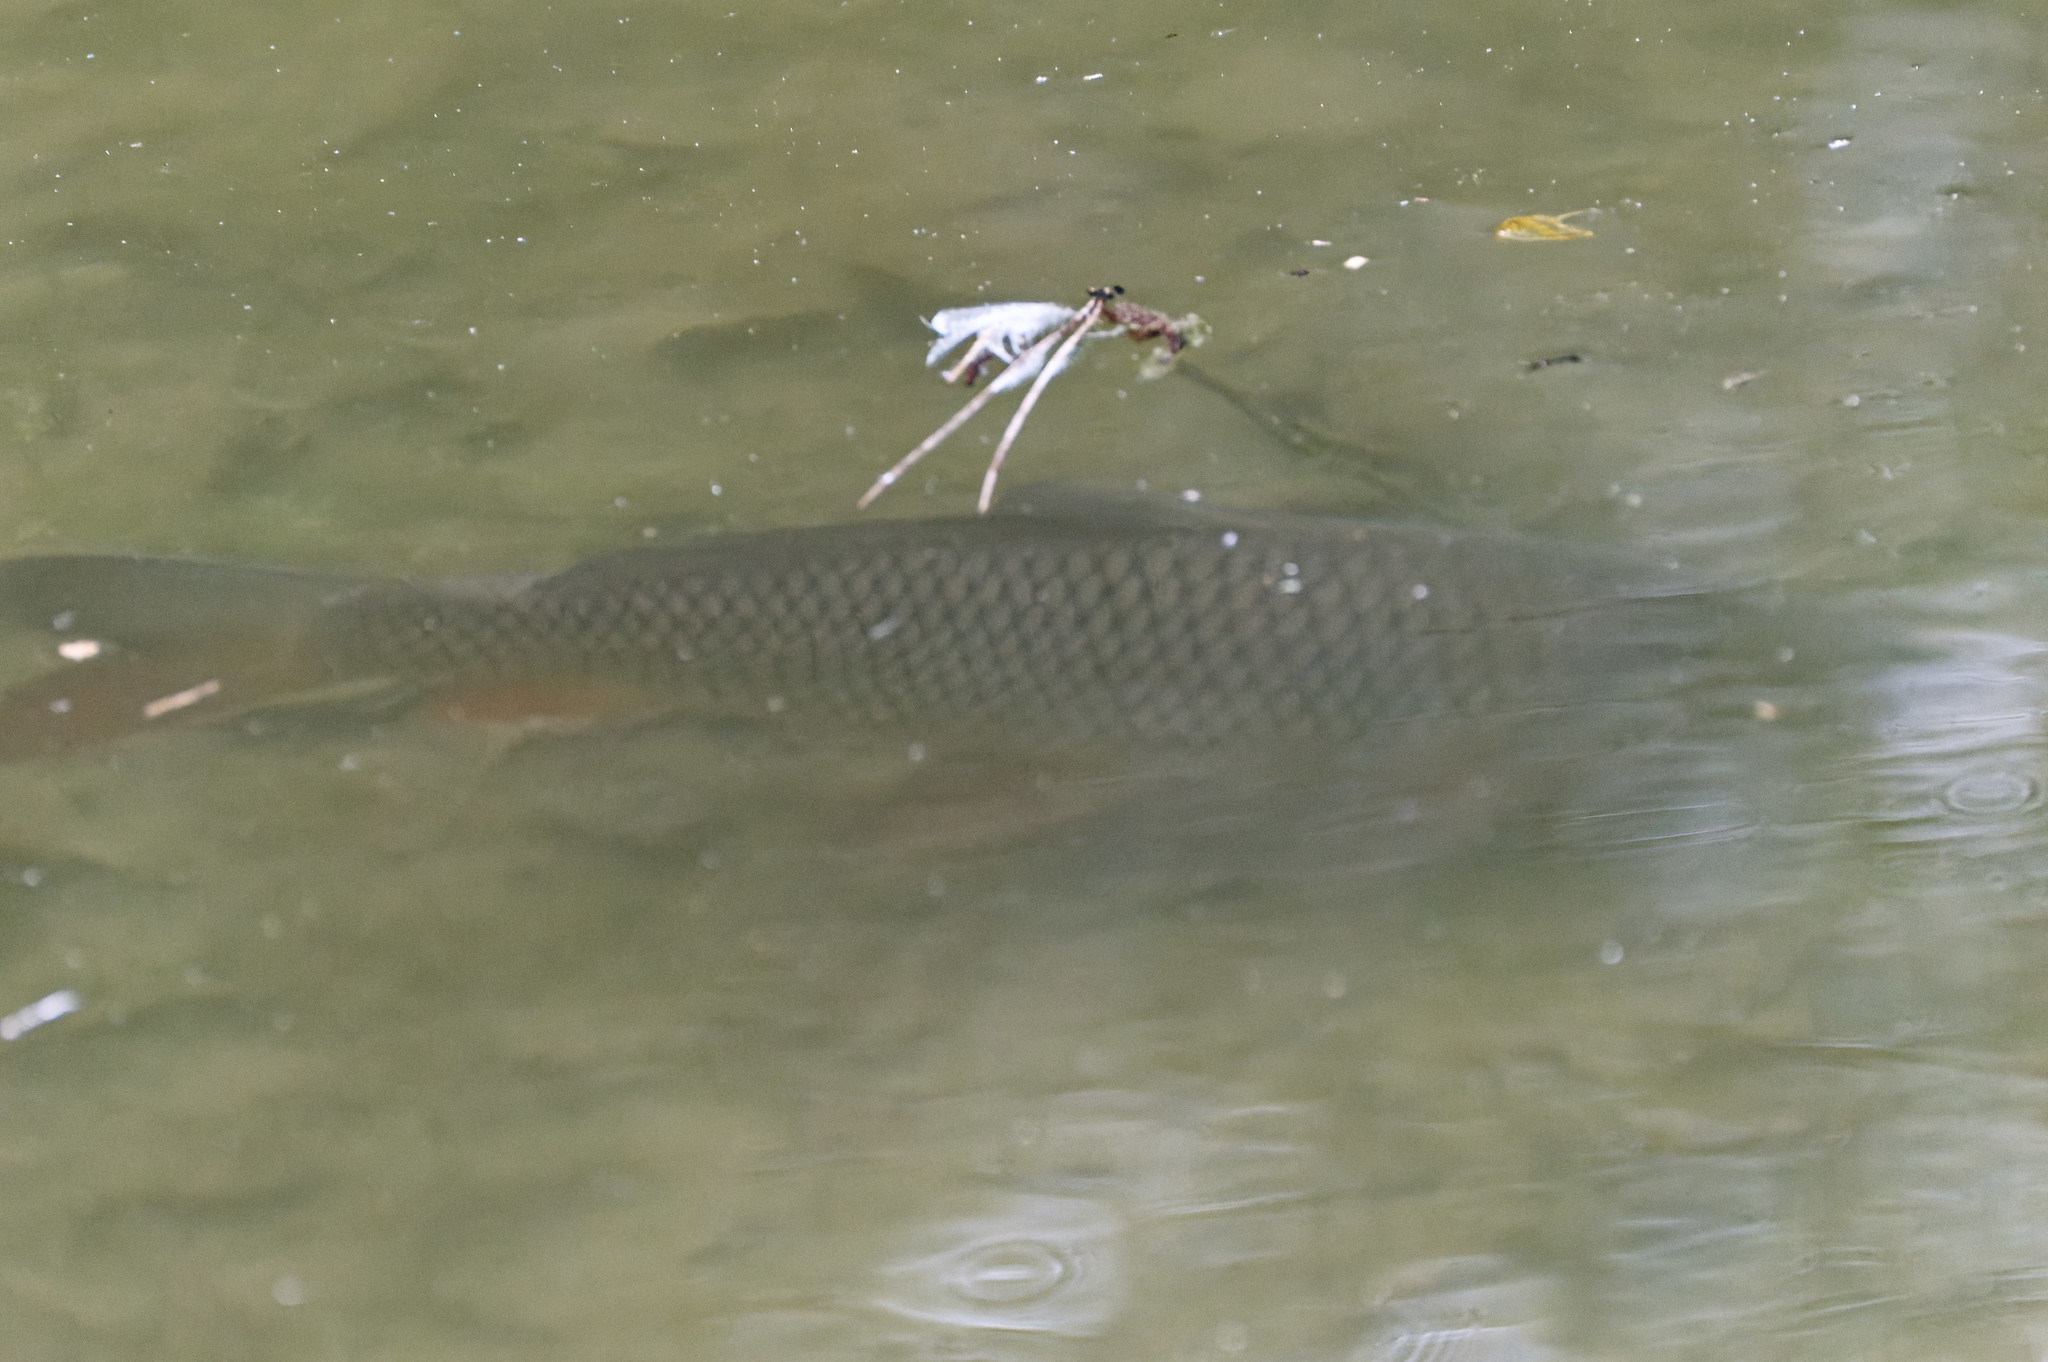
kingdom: Animalia
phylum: Chordata
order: Cypriniformes
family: Cyprinidae
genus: Cyprinus
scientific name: Cyprinus carpio
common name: Common carp
